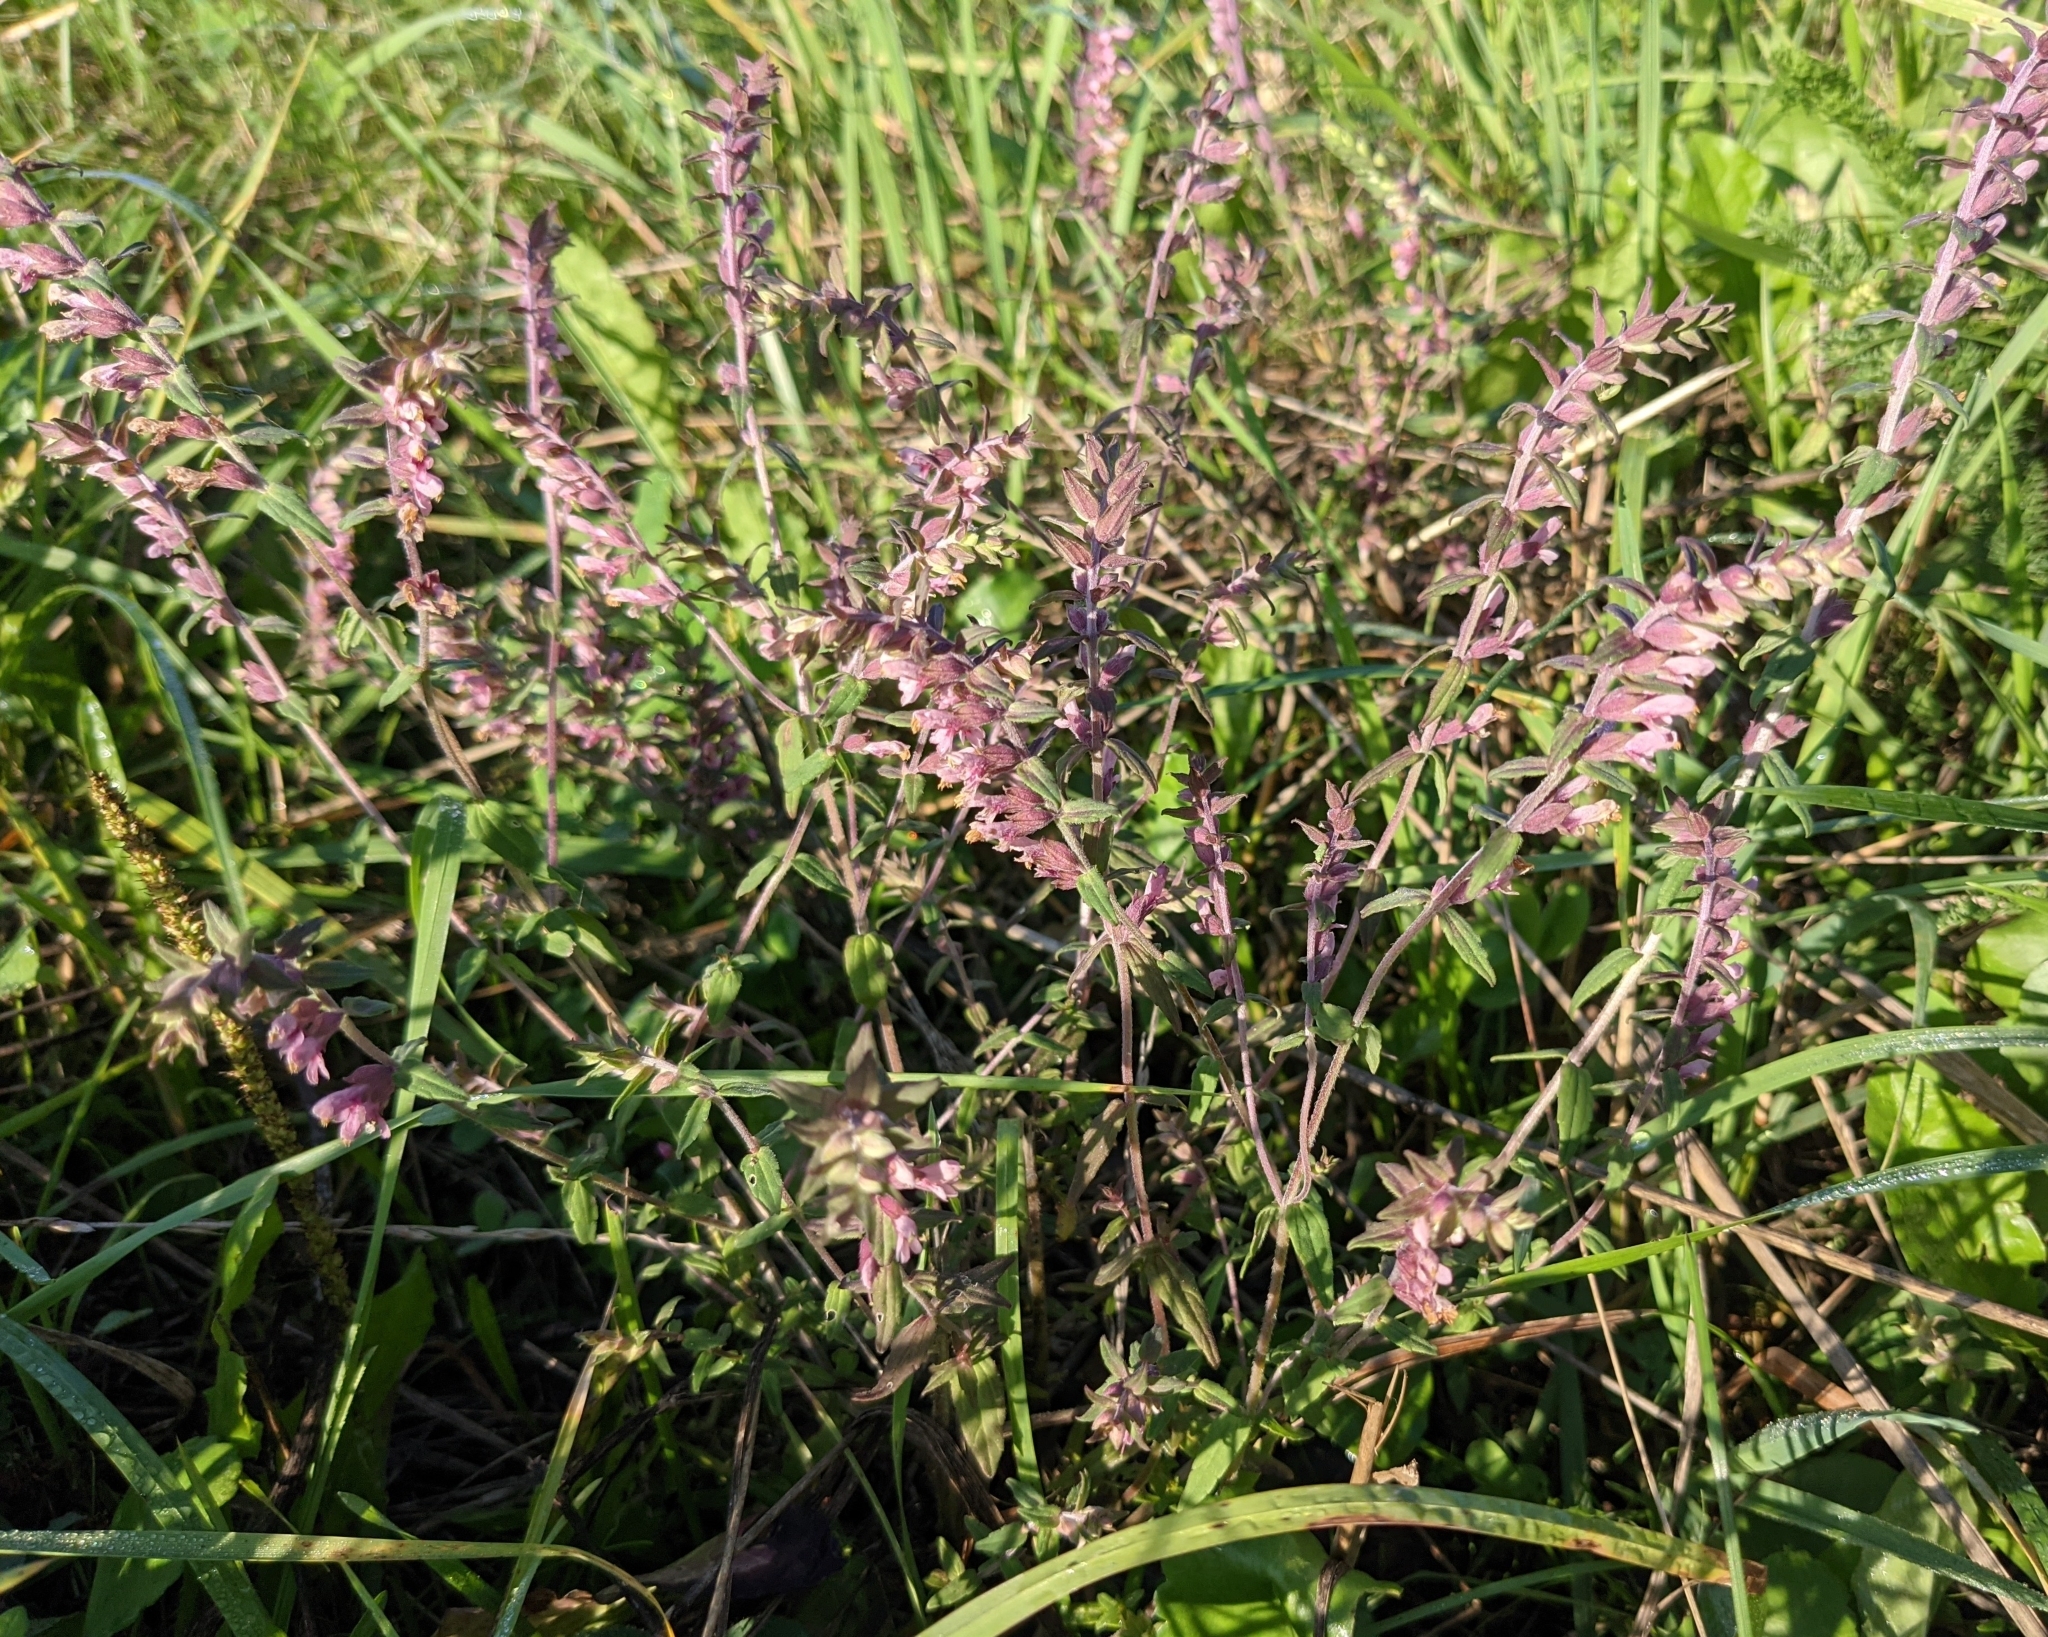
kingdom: Plantae
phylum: Tracheophyta
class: Magnoliopsida
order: Lamiales
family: Orobanchaceae
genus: Odontites
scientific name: Odontites vulgaris
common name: Broomrape
